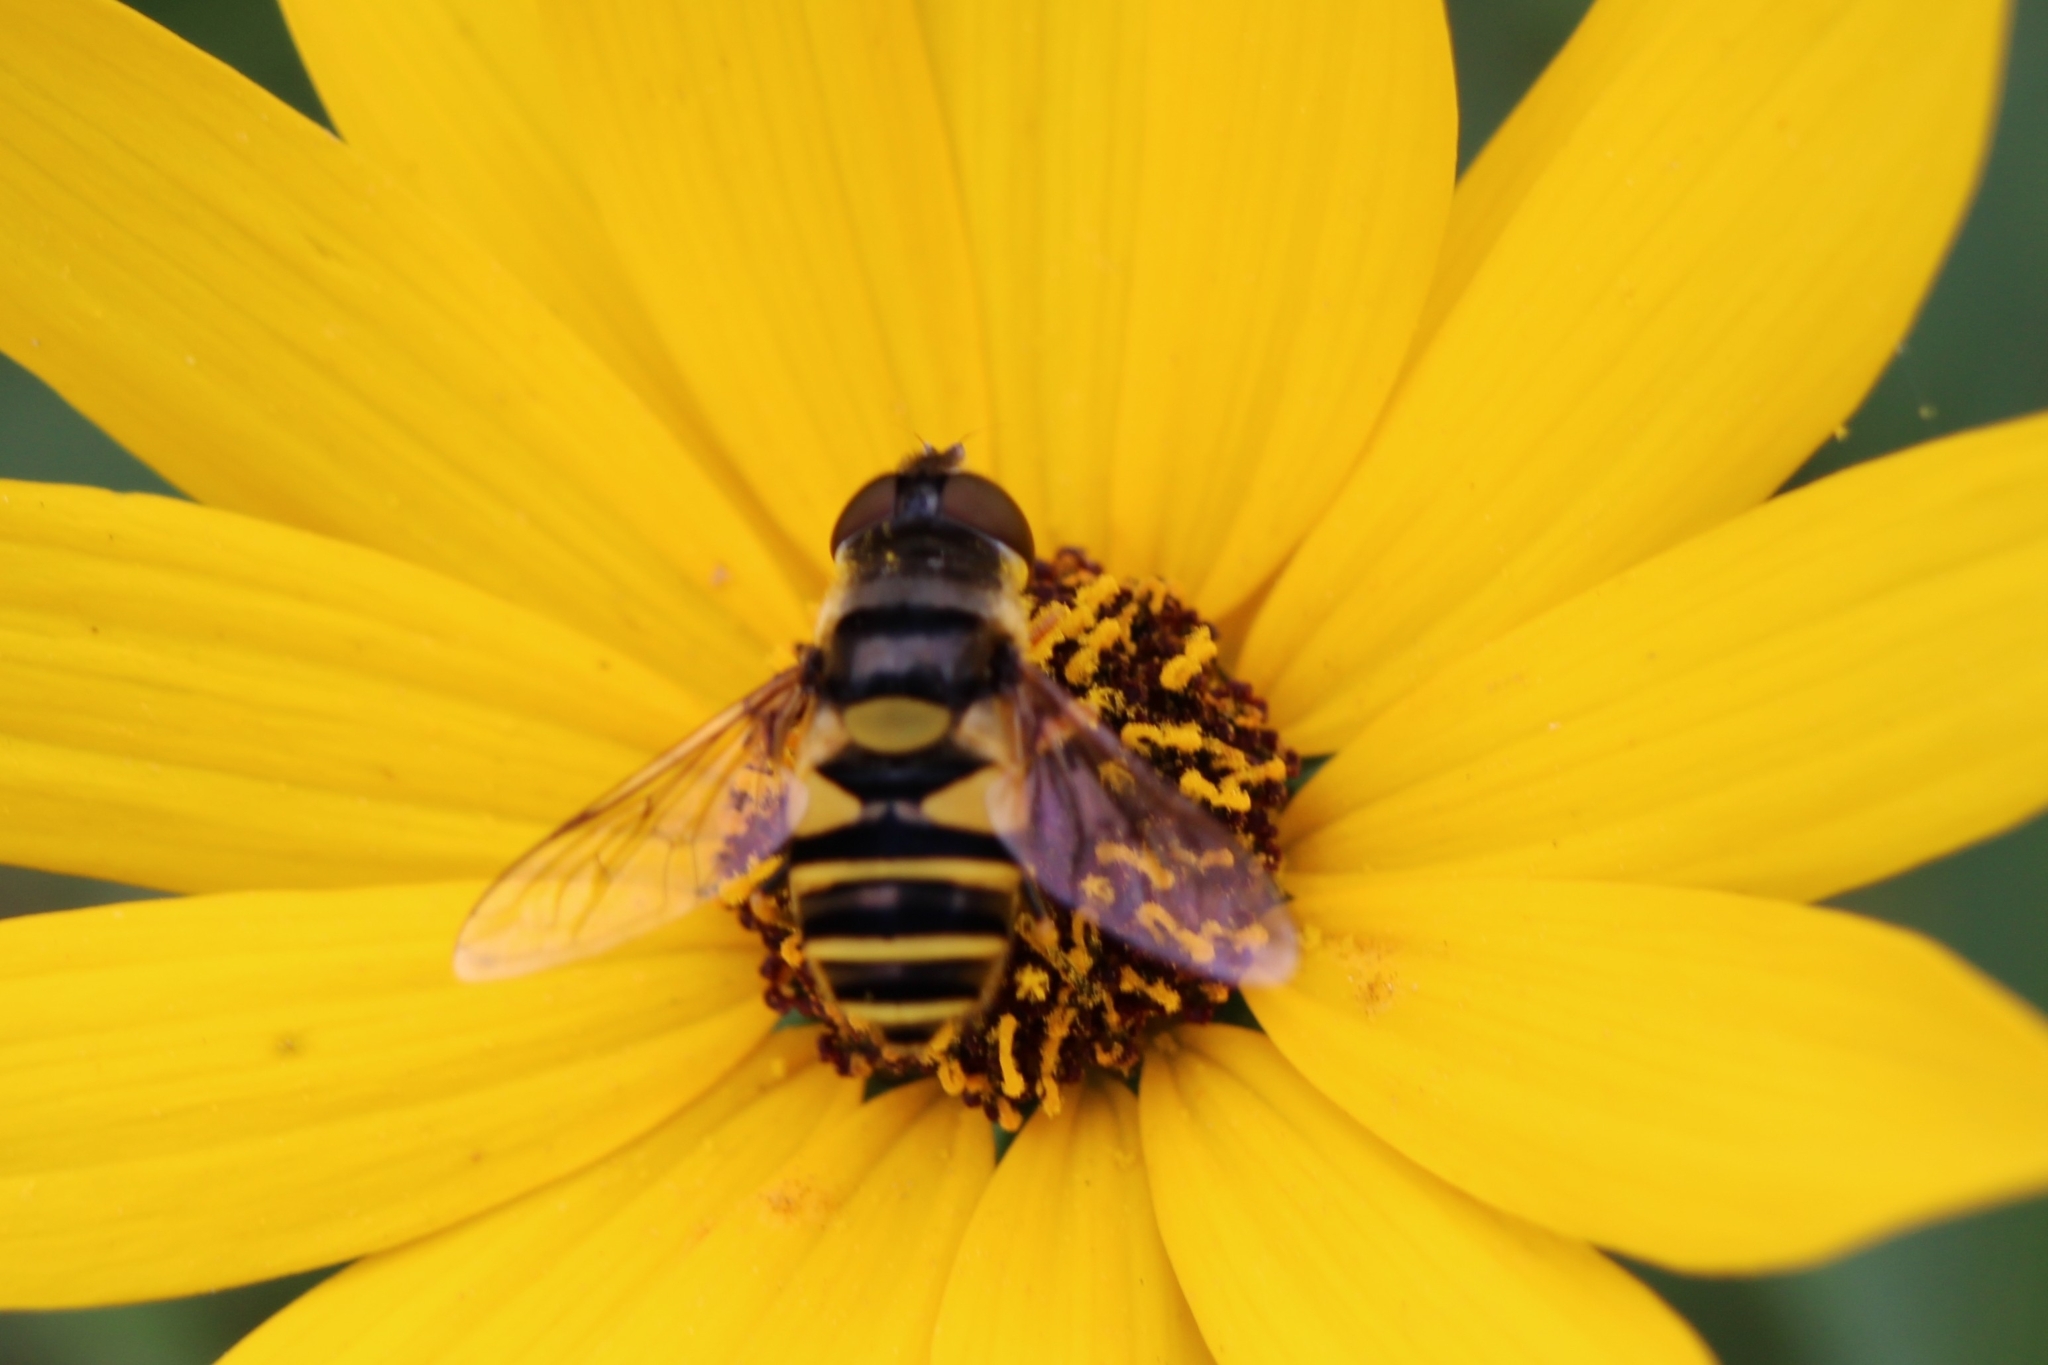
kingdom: Animalia
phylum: Arthropoda
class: Insecta
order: Diptera
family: Syrphidae
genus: Eristalis
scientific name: Eristalis transversa
